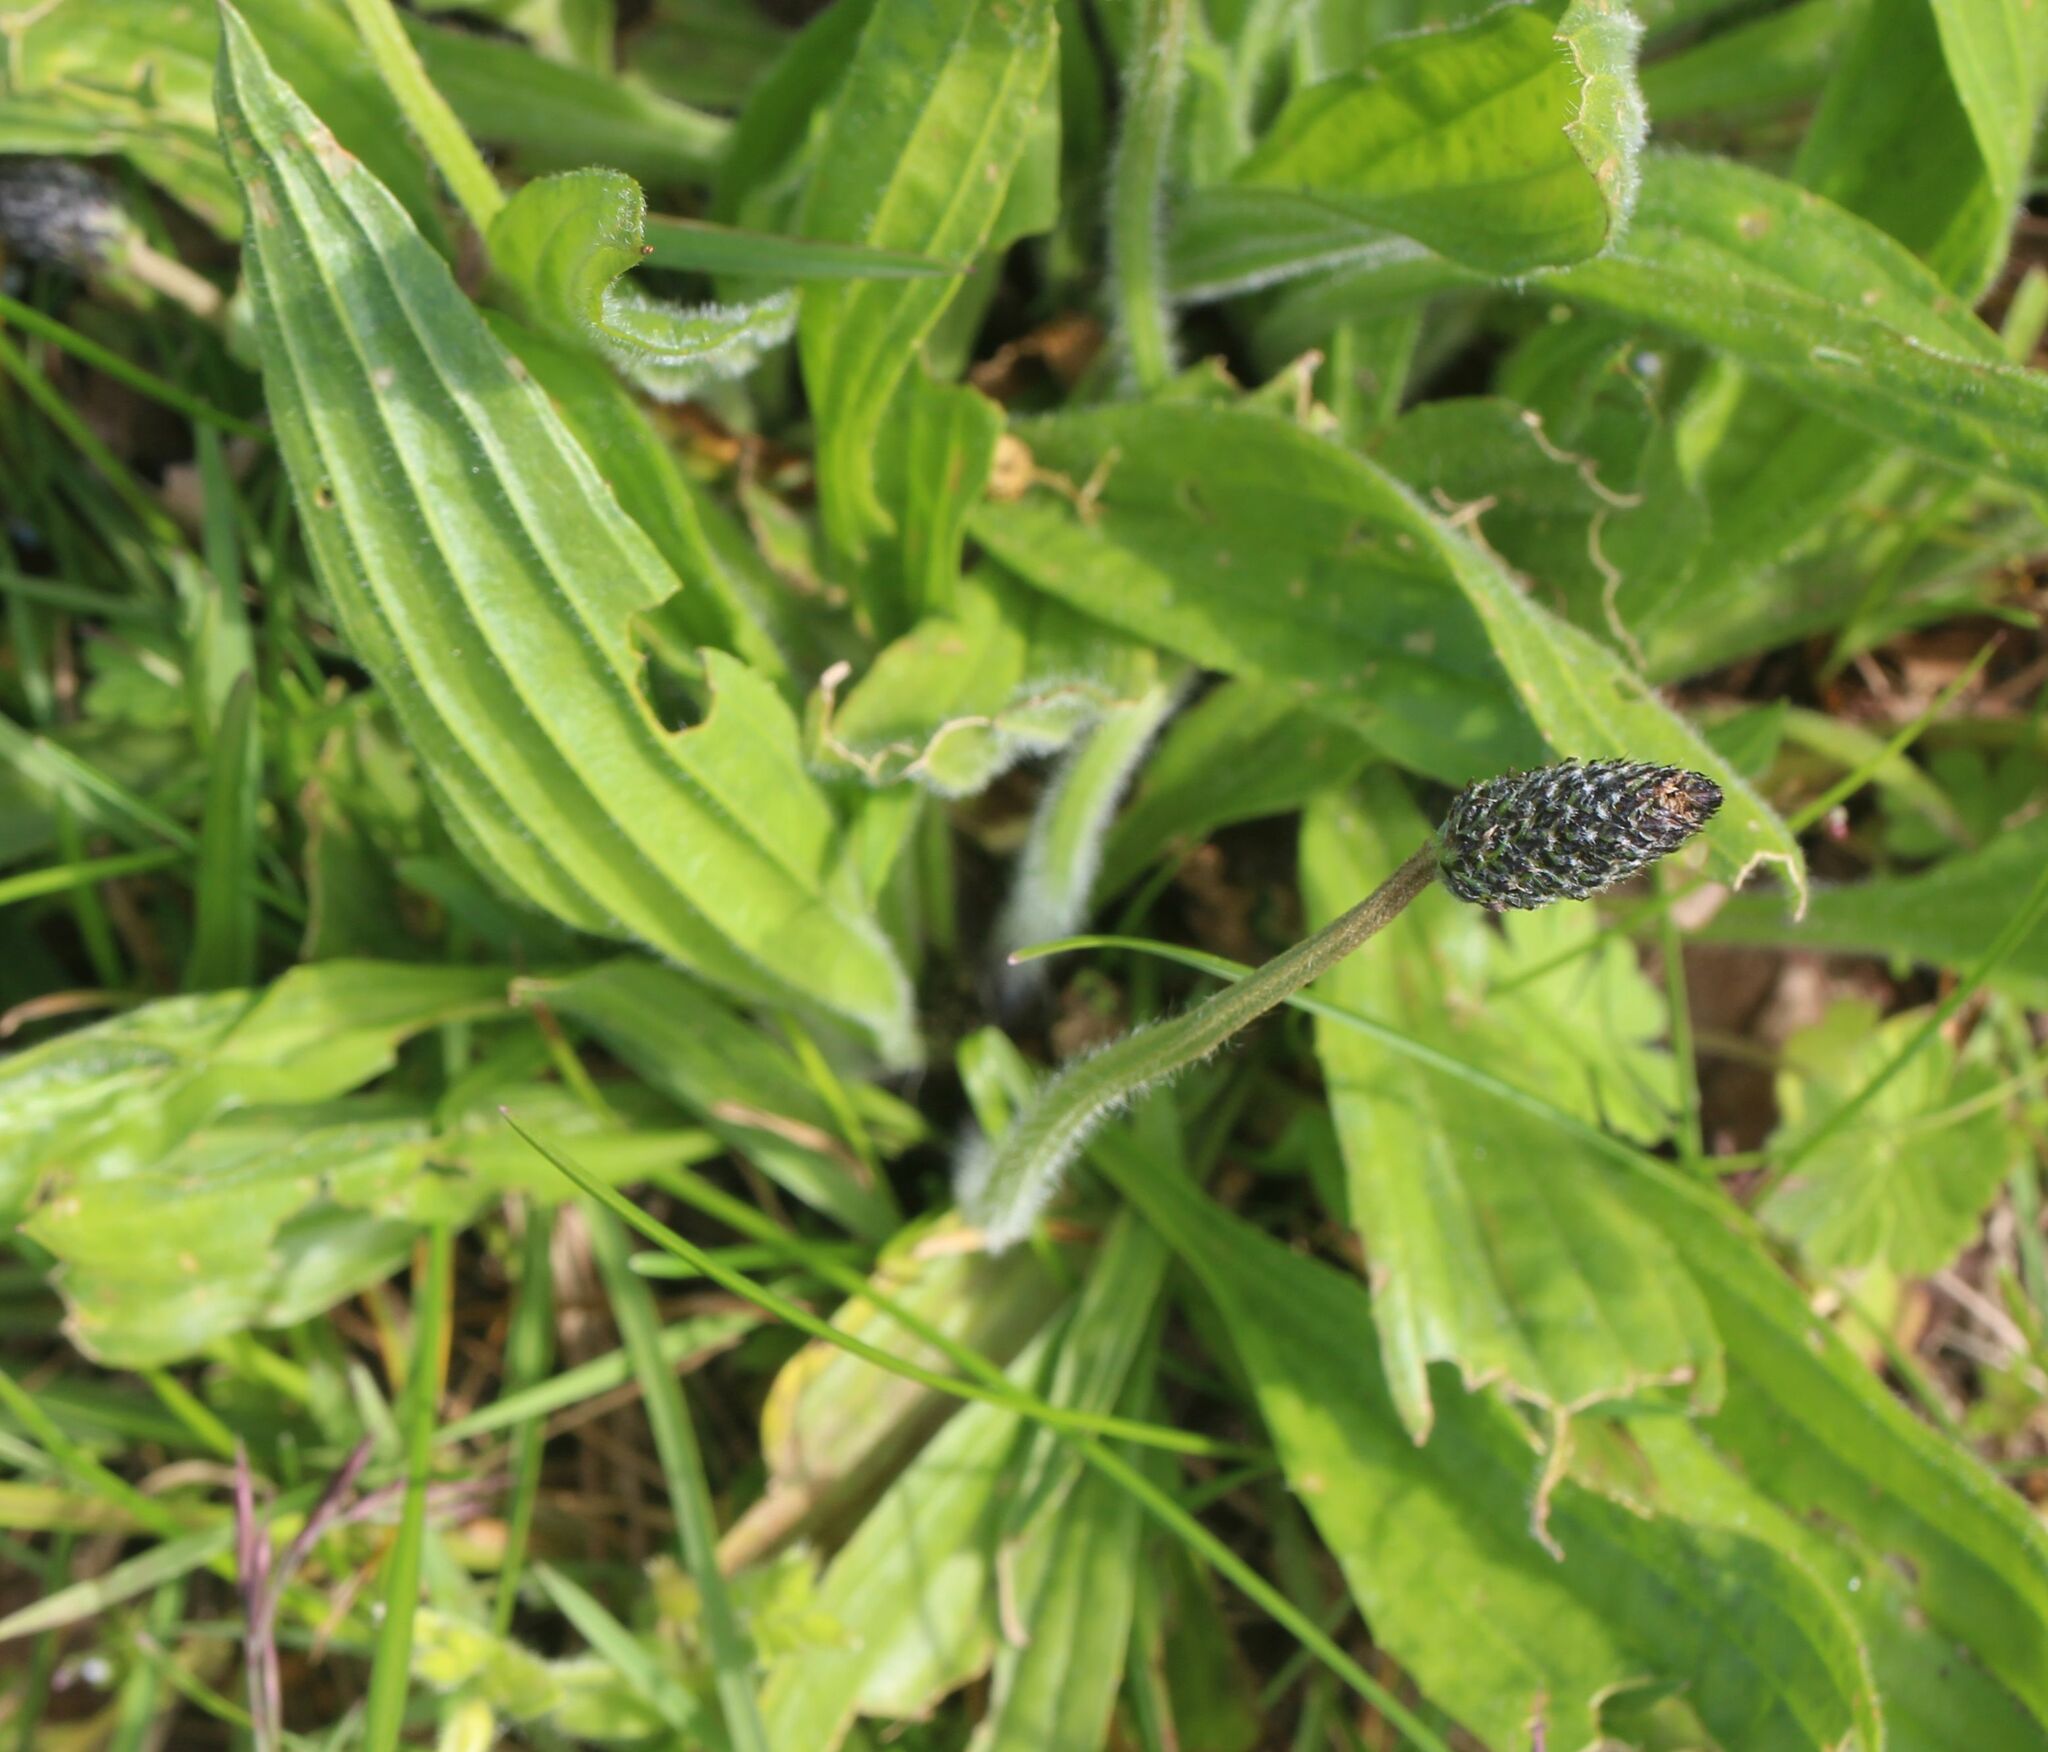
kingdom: Plantae
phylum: Tracheophyta
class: Magnoliopsida
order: Lamiales
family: Plantaginaceae
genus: Plantago
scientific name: Plantago lanceolata
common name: Ribwort plantain
